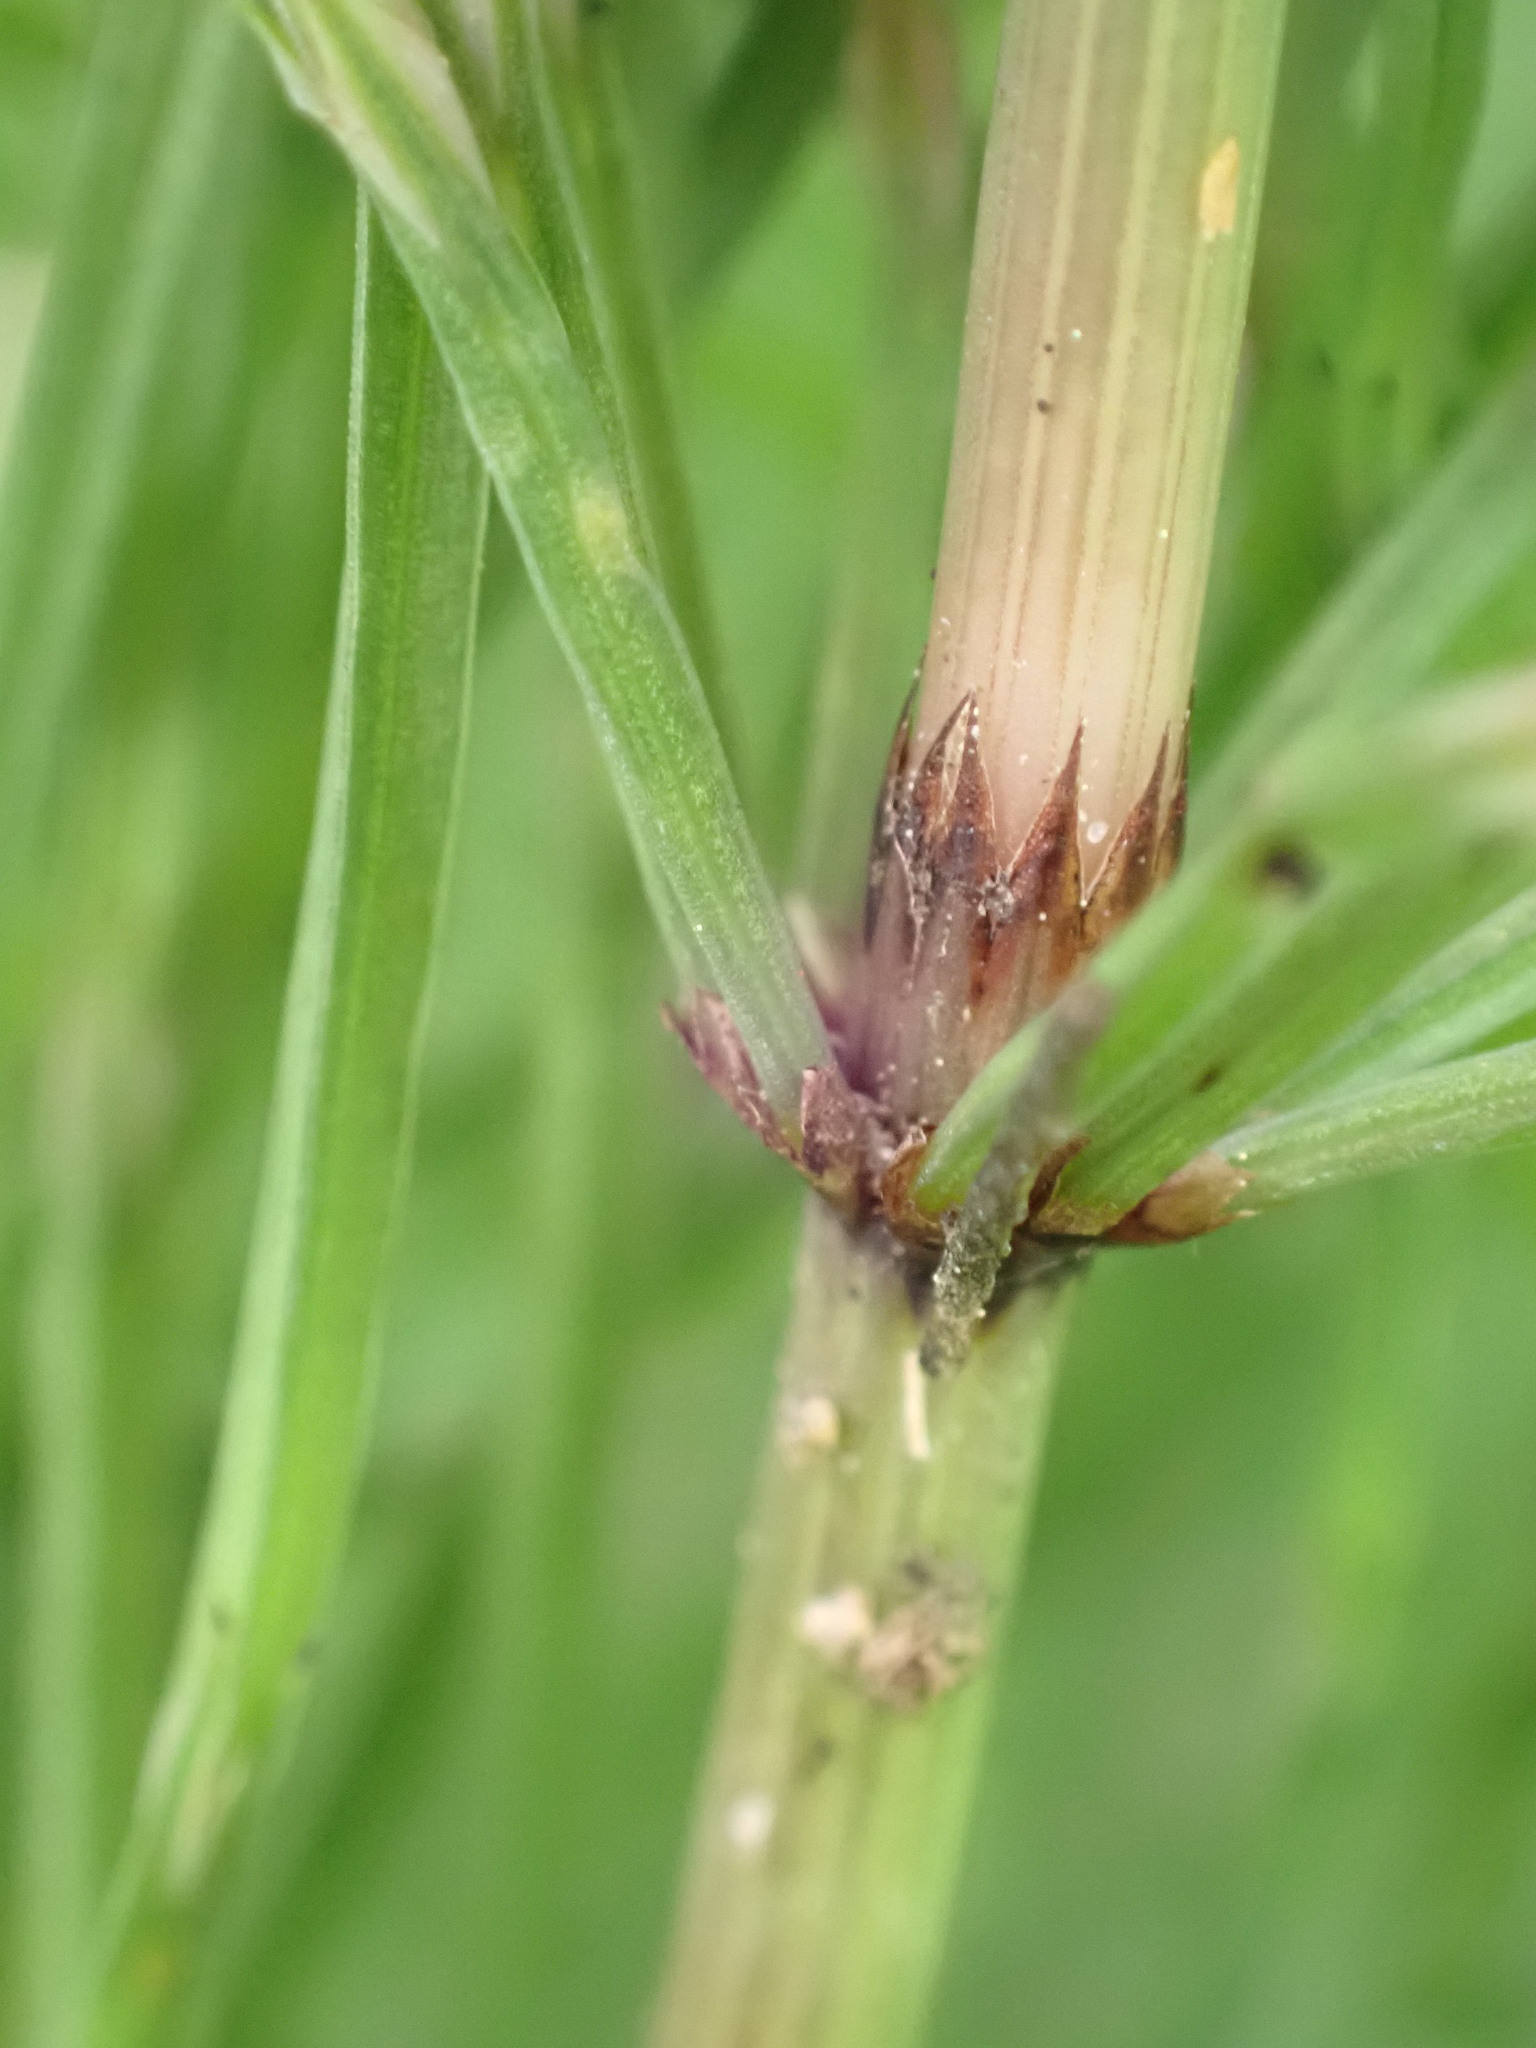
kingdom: Plantae
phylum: Tracheophyta
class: Polypodiopsida
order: Equisetales
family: Equisetaceae
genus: Equisetum
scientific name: Equisetum arvense
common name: Field horsetail
